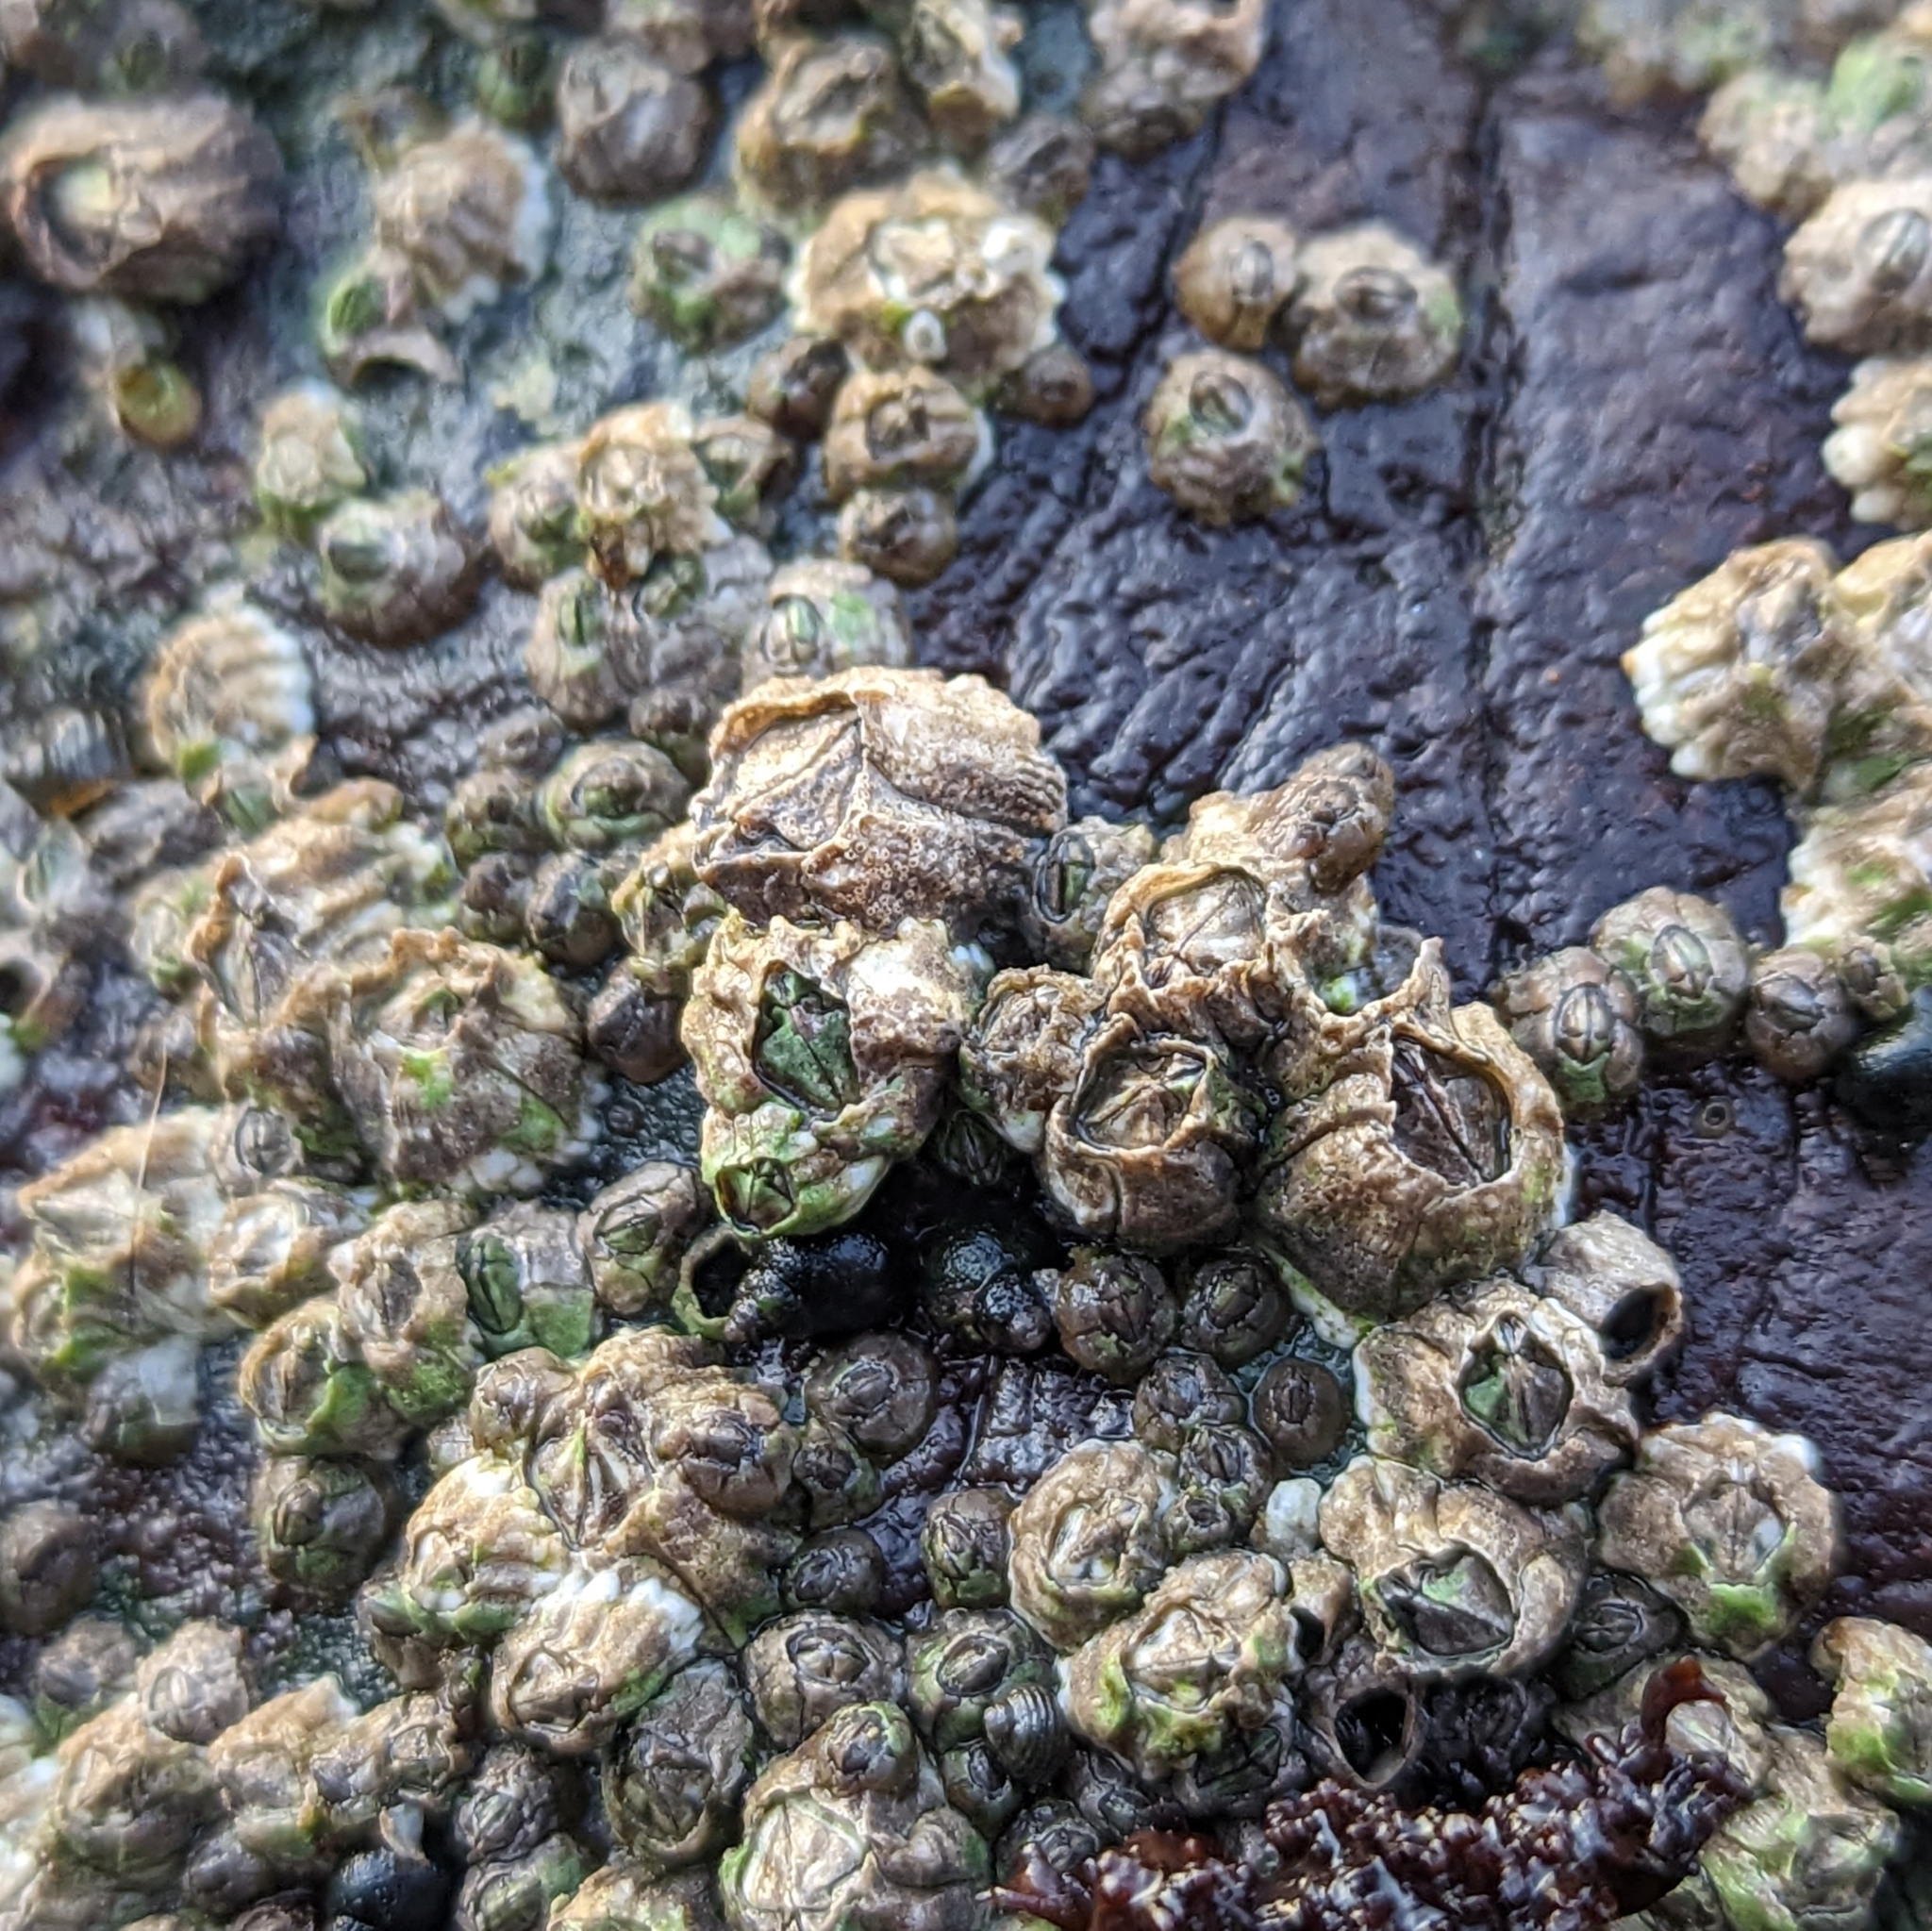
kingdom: Animalia
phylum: Arthropoda
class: Maxillopoda
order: Sessilia
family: Balanidae
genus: Balanus
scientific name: Balanus glandula
